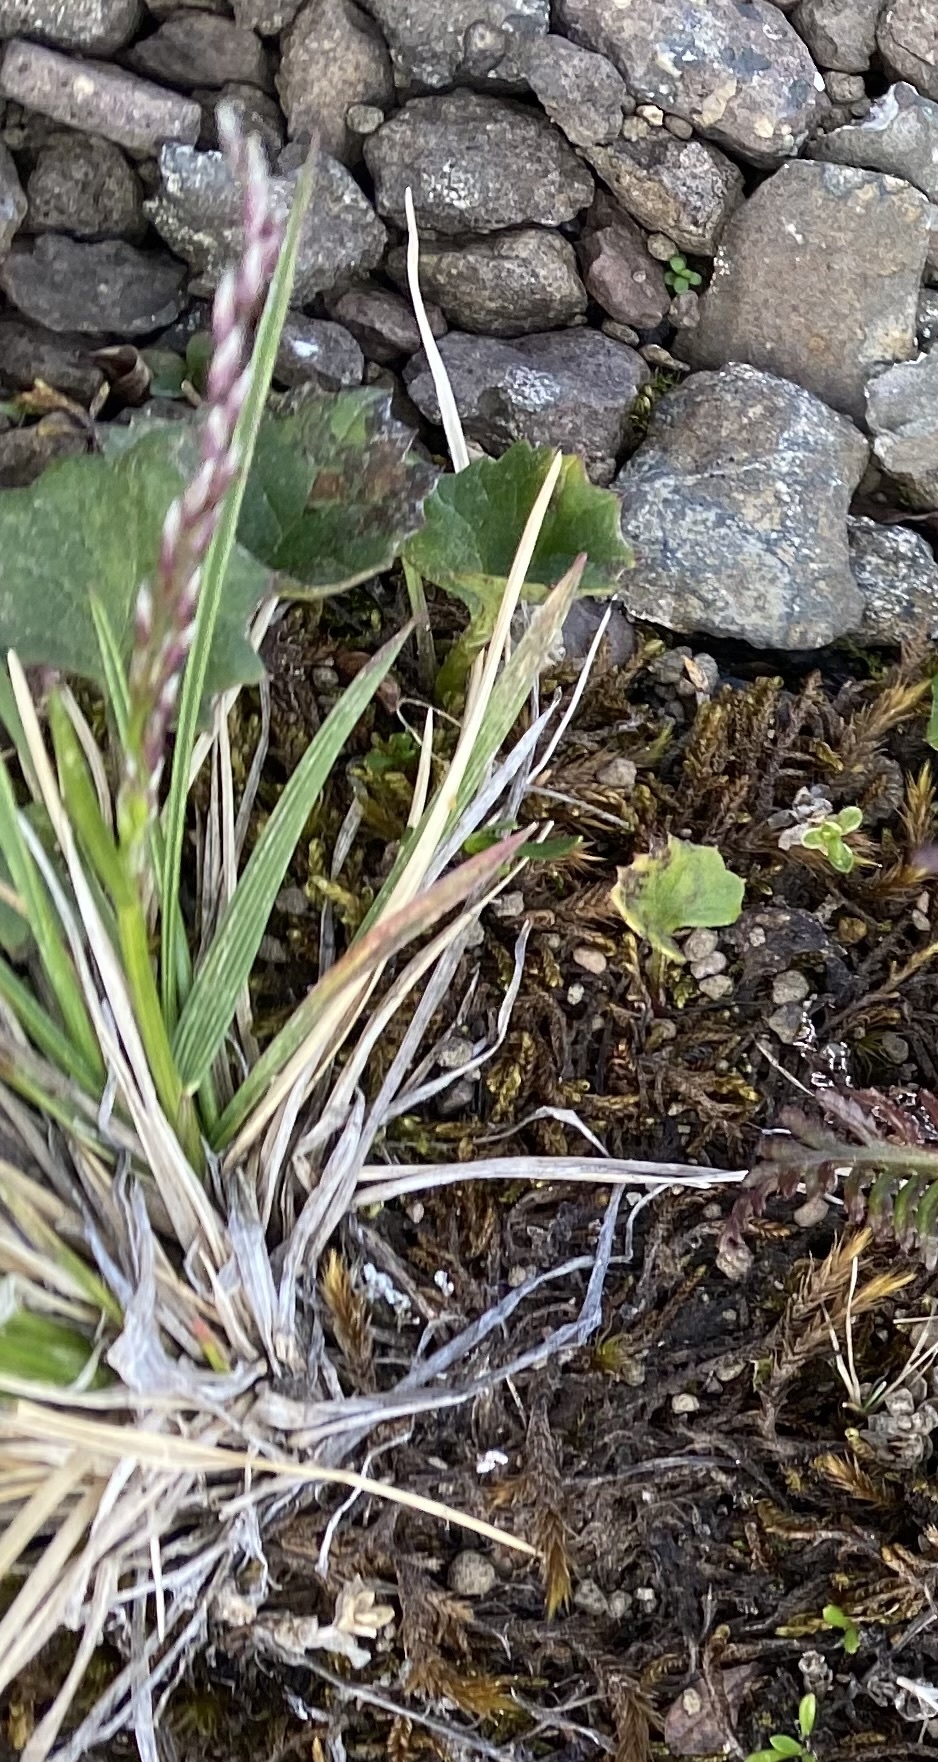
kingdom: Plantae
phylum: Tracheophyta
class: Liliopsida
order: Poales
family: Poaceae
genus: Deschampsia
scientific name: Deschampsia
